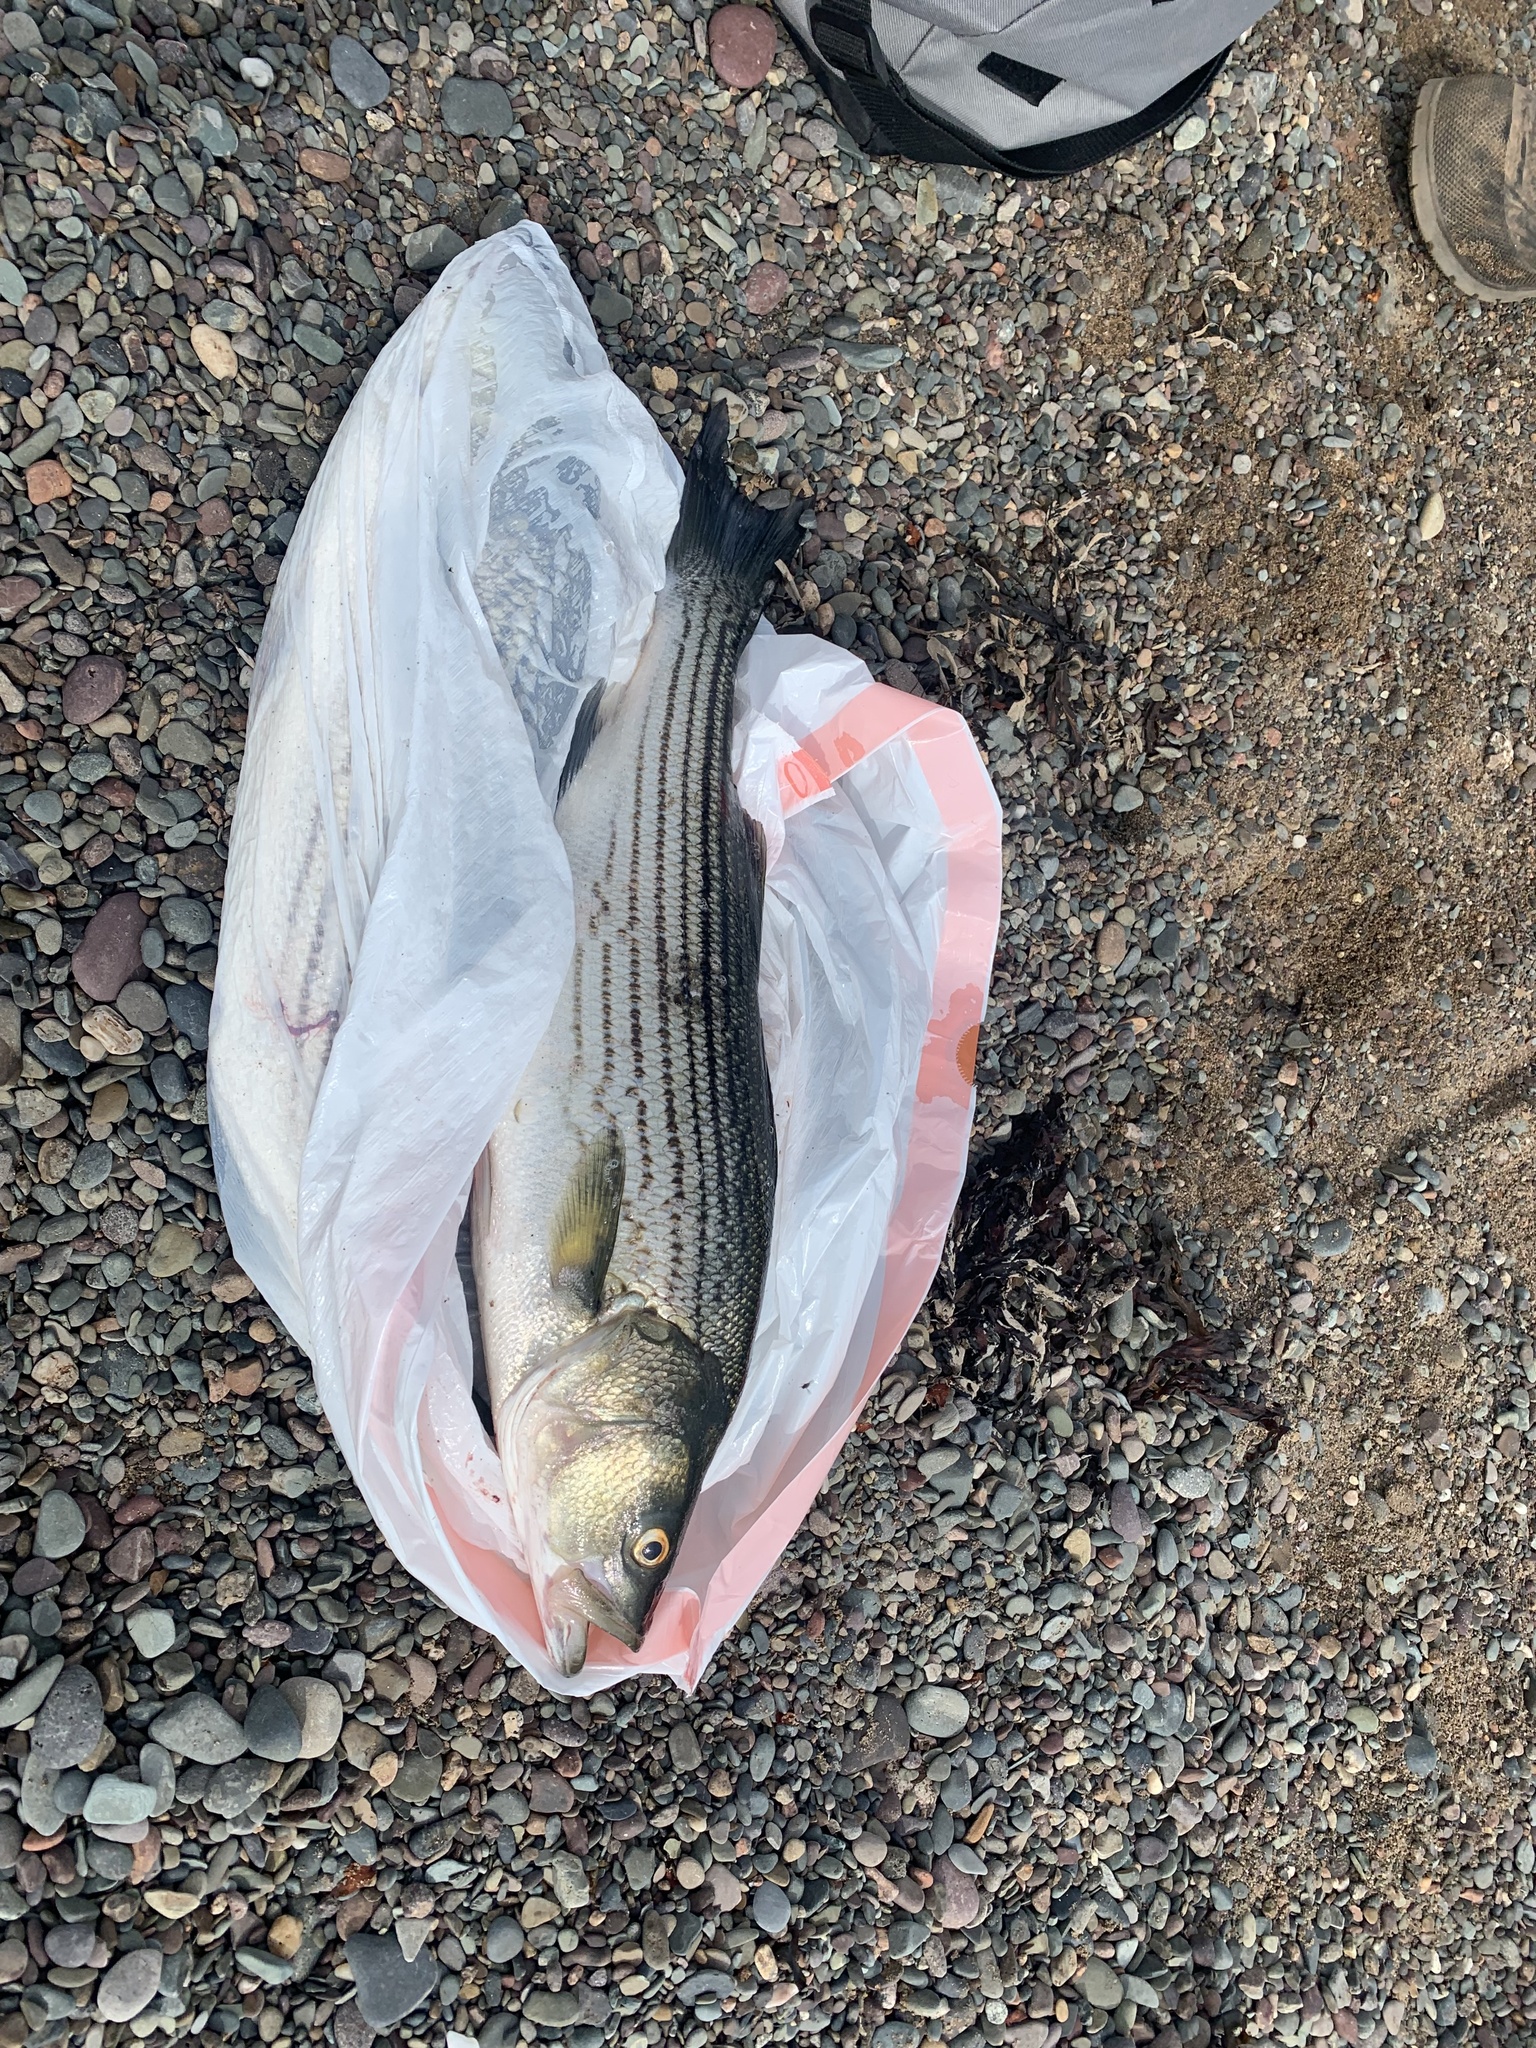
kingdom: Animalia
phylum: Chordata
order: Perciformes
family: Moronidae
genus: Morone
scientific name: Morone saxatilis
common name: Striped bass
